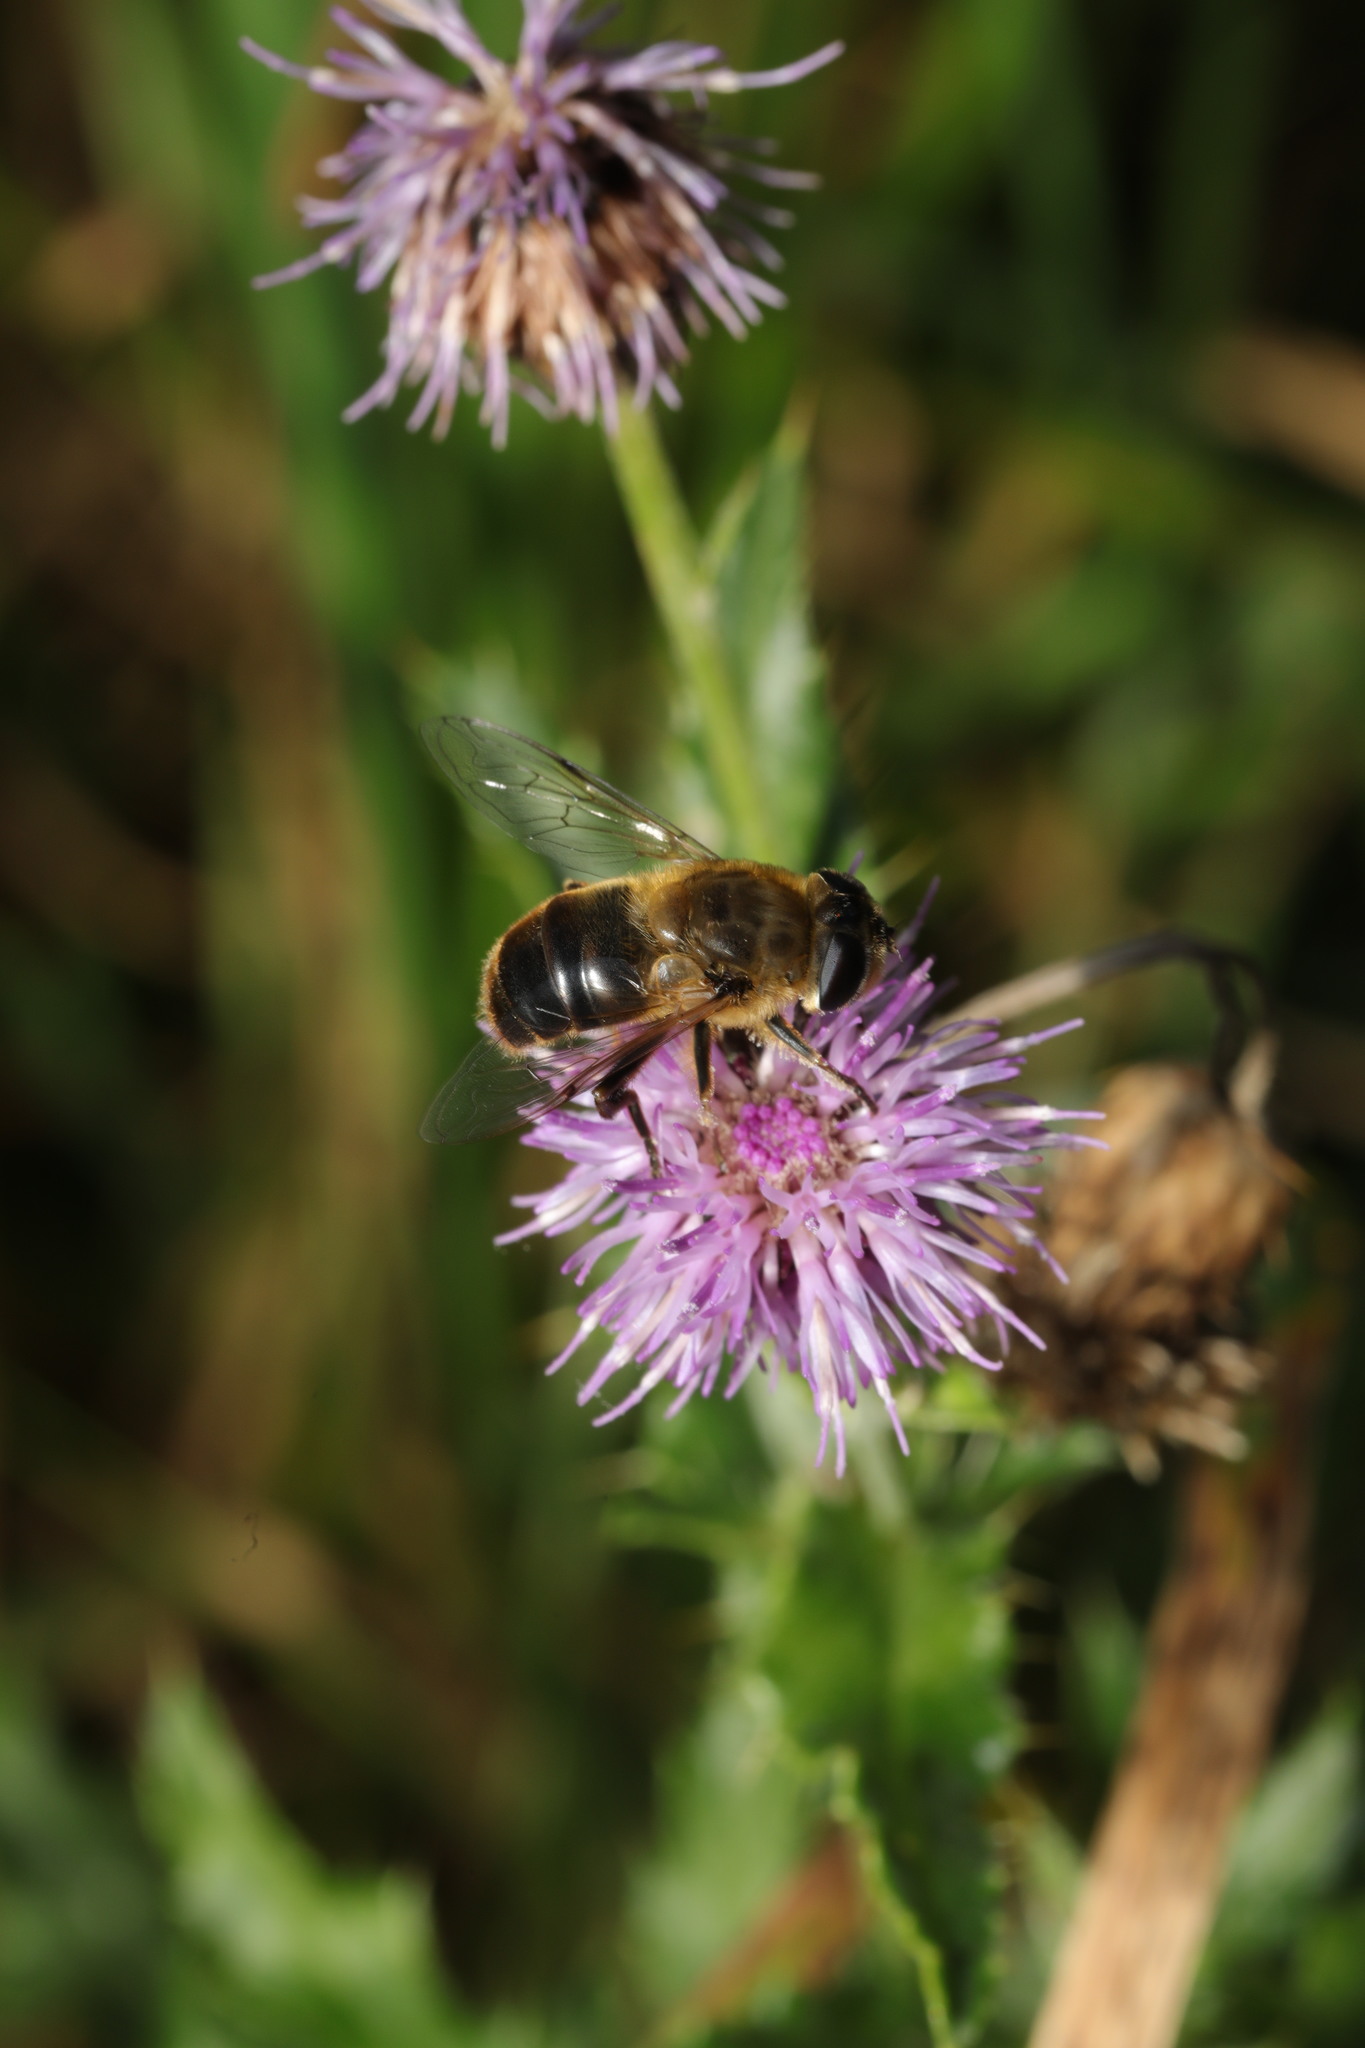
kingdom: Animalia
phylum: Arthropoda
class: Insecta
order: Diptera
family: Syrphidae
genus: Eristalis
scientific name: Eristalis tenax
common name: Drone fly
